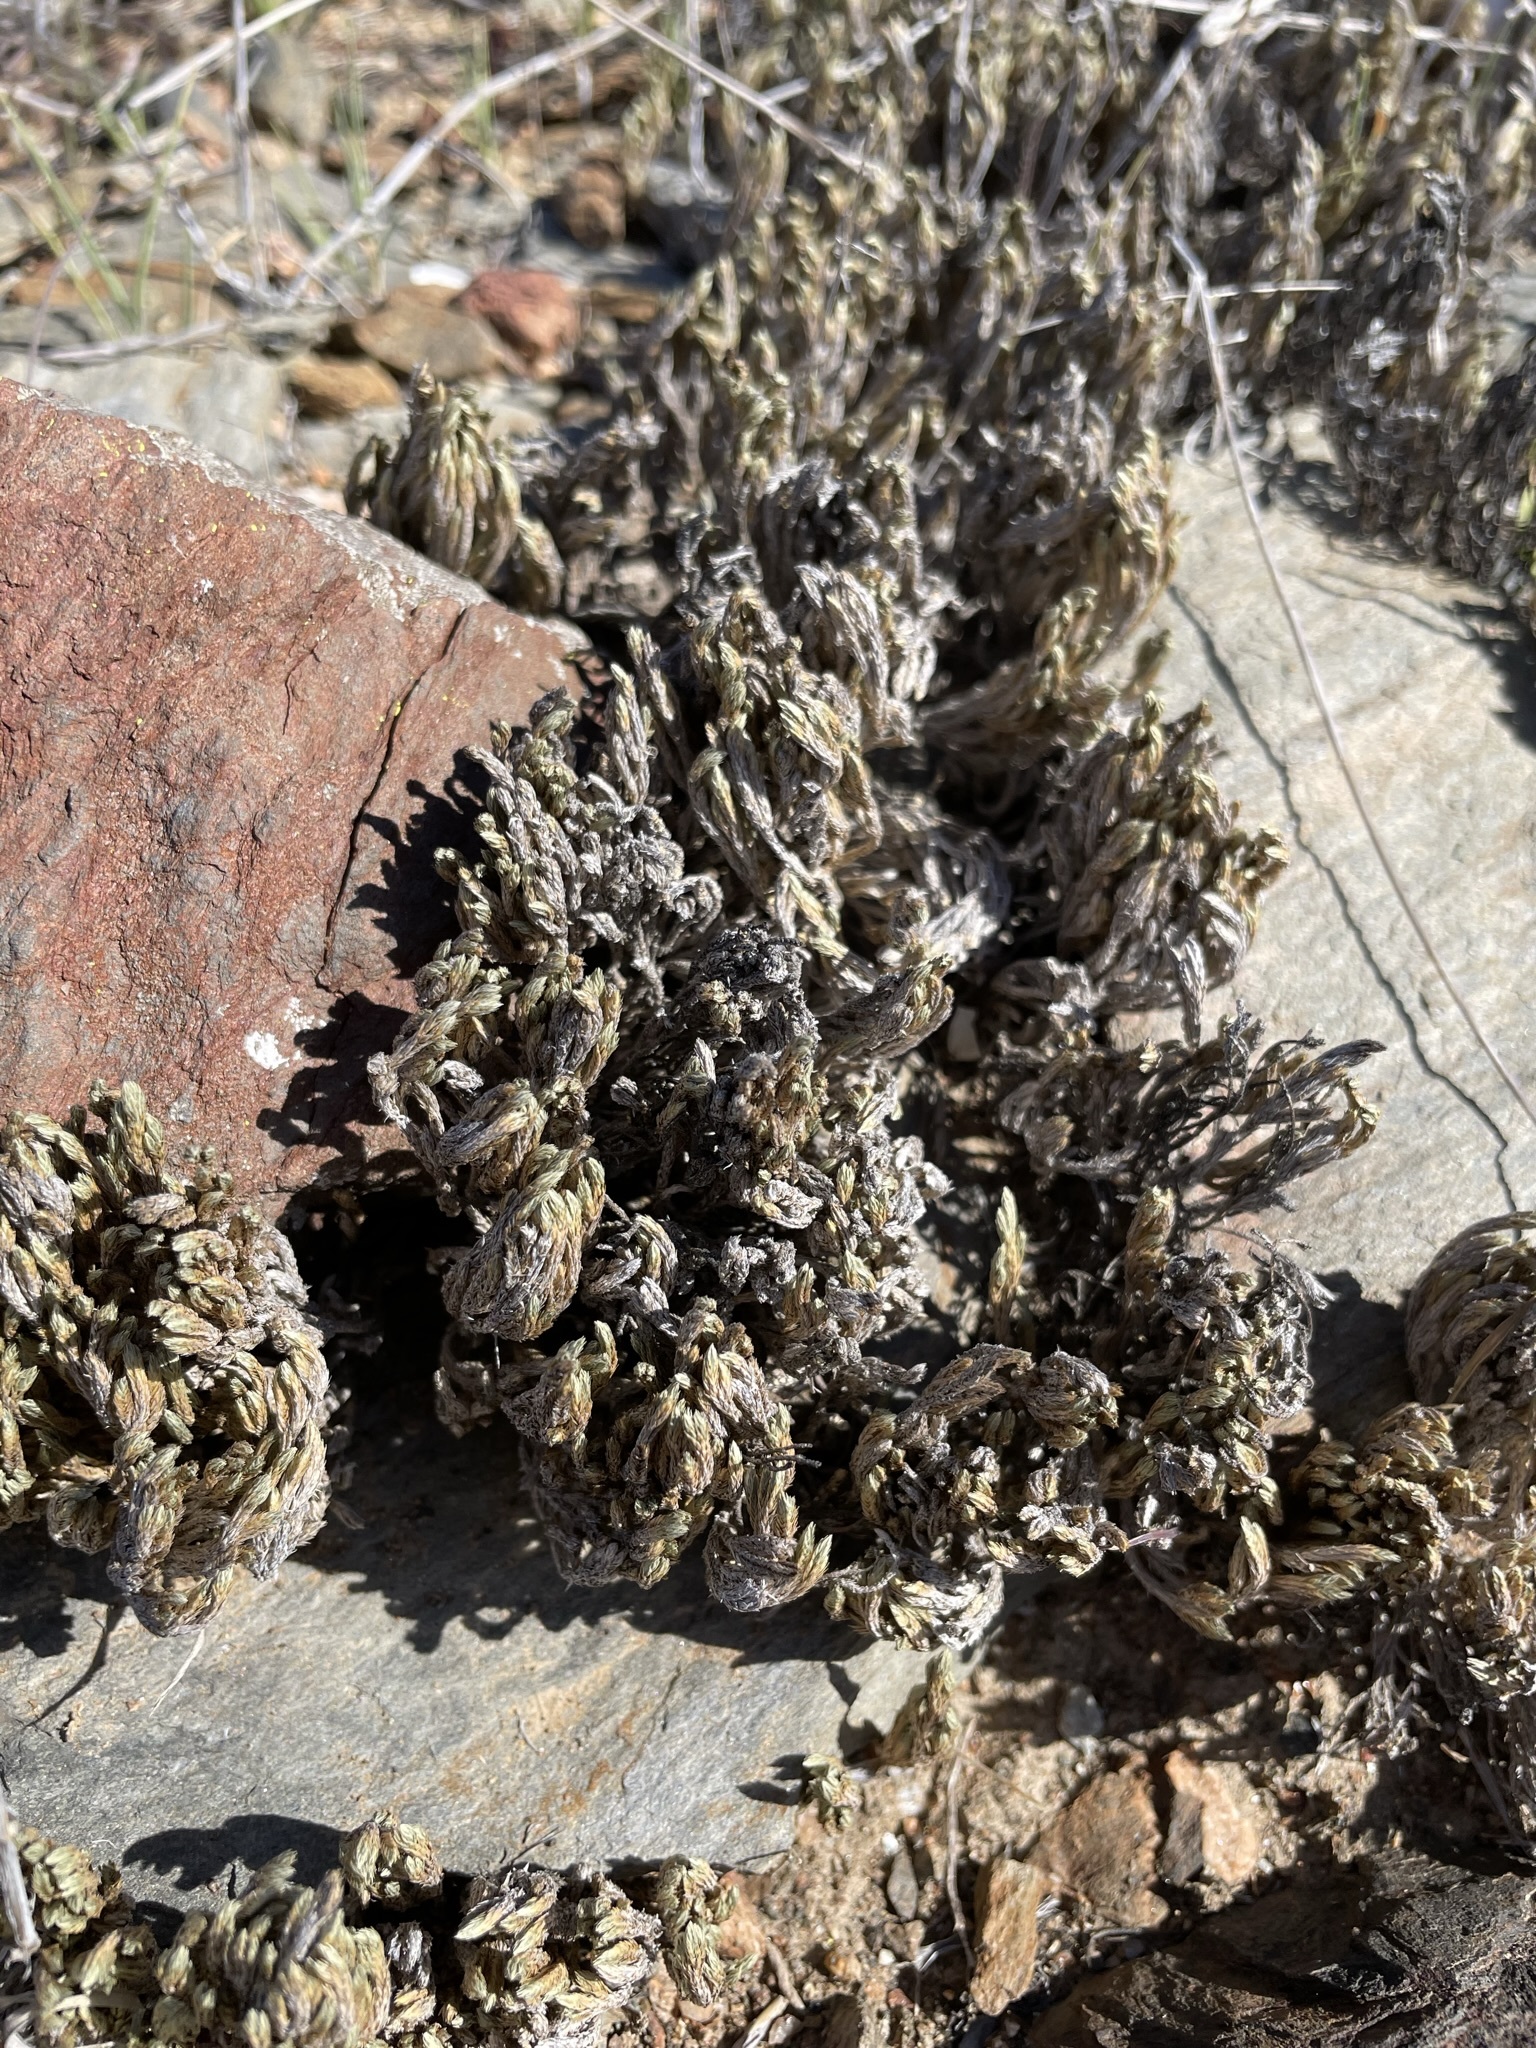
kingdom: Plantae
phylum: Tracheophyta
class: Lycopodiopsida
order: Selaginellales
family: Selaginellaceae
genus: Selaginella
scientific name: Selaginella bigelovii
